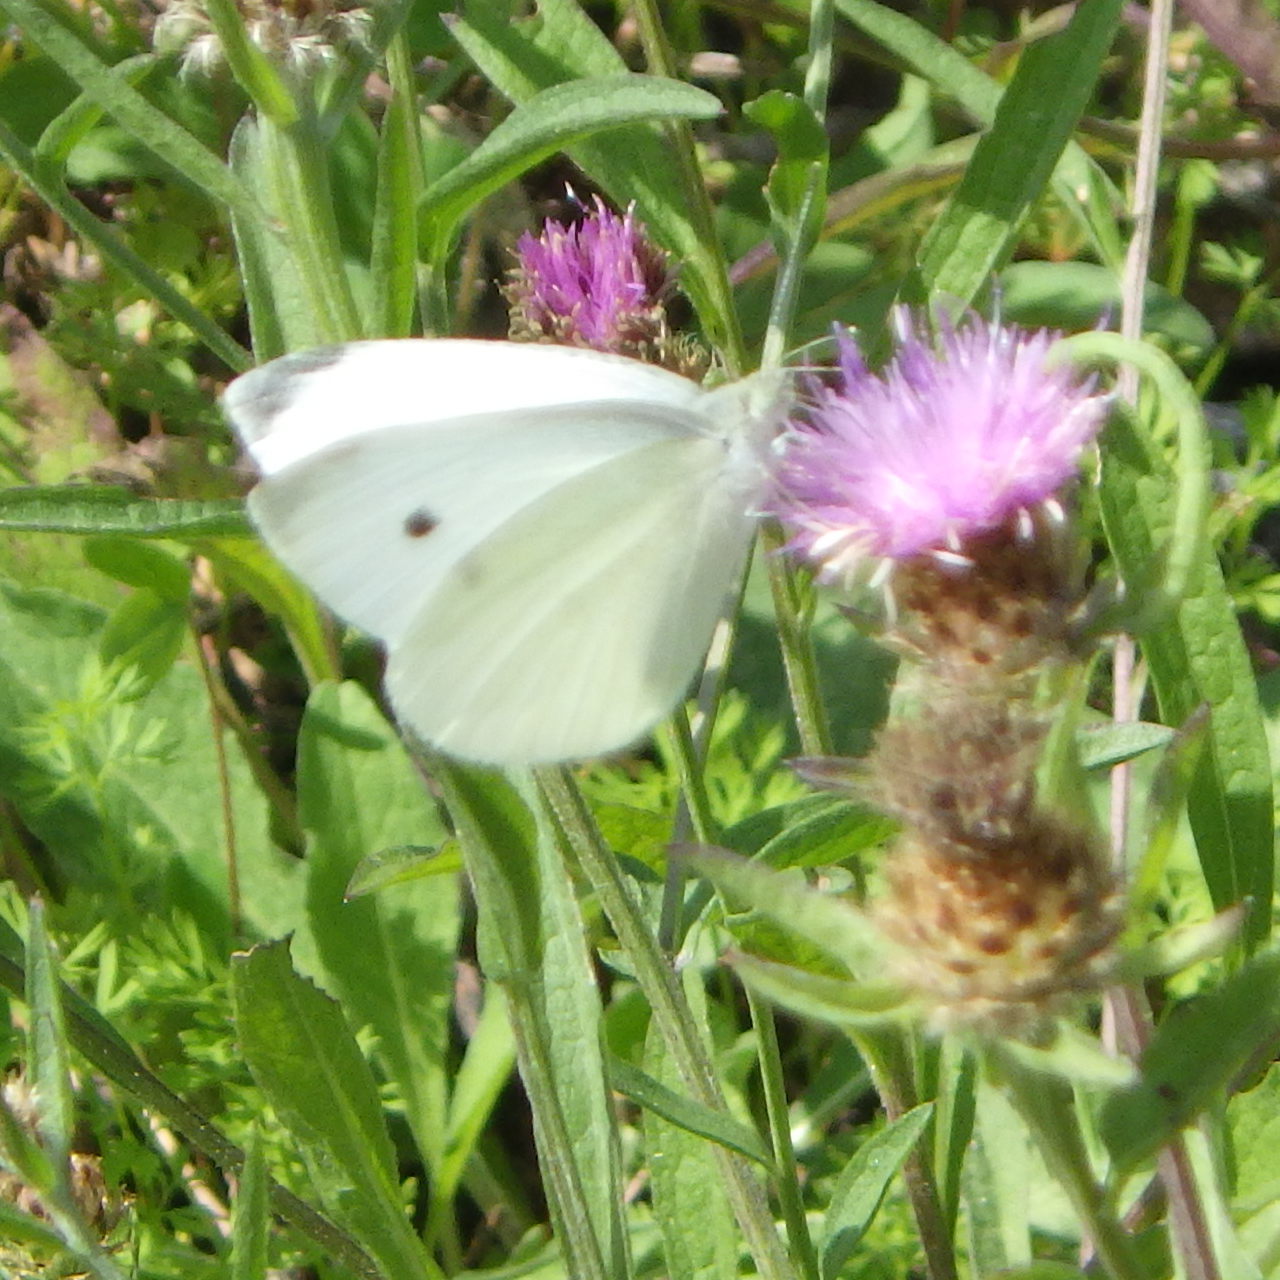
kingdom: Animalia
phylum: Arthropoda
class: Insecta
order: Lepidoptera
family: Pieridae
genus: Pieris
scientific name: Pieris rapae
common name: Small white
